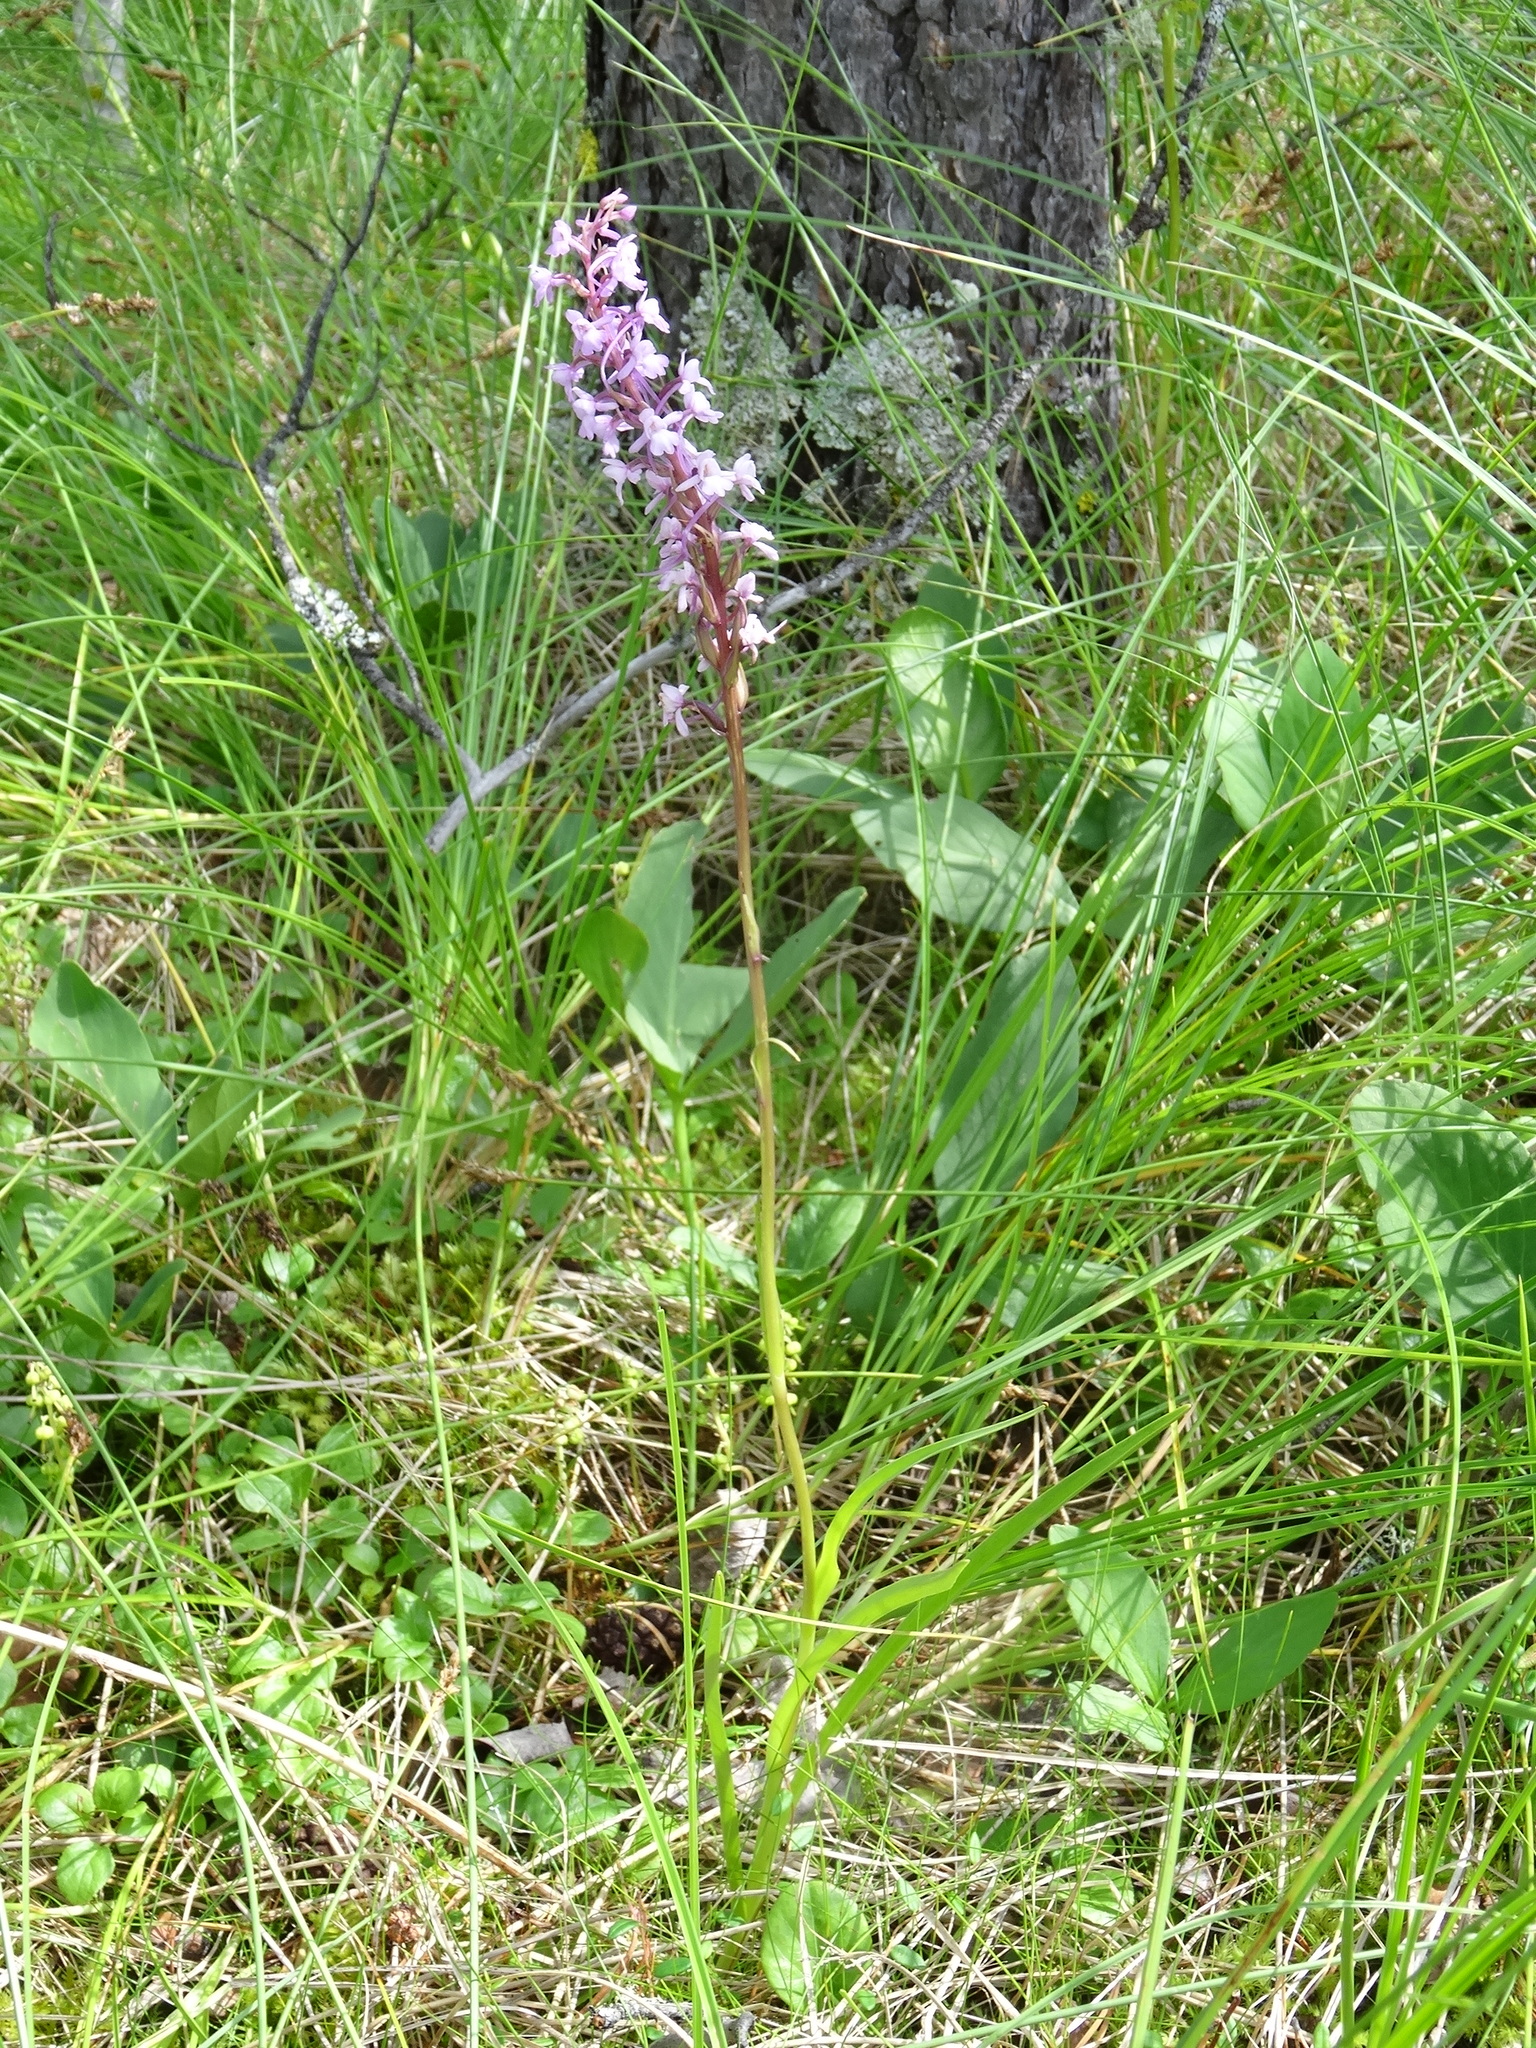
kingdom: Plantae
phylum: Tracheophyta
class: Liliopsida
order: Asparagales
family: Orchidaceae
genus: Gymnadenia
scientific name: Gymnadenia conopsea
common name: Fragrant orchid
